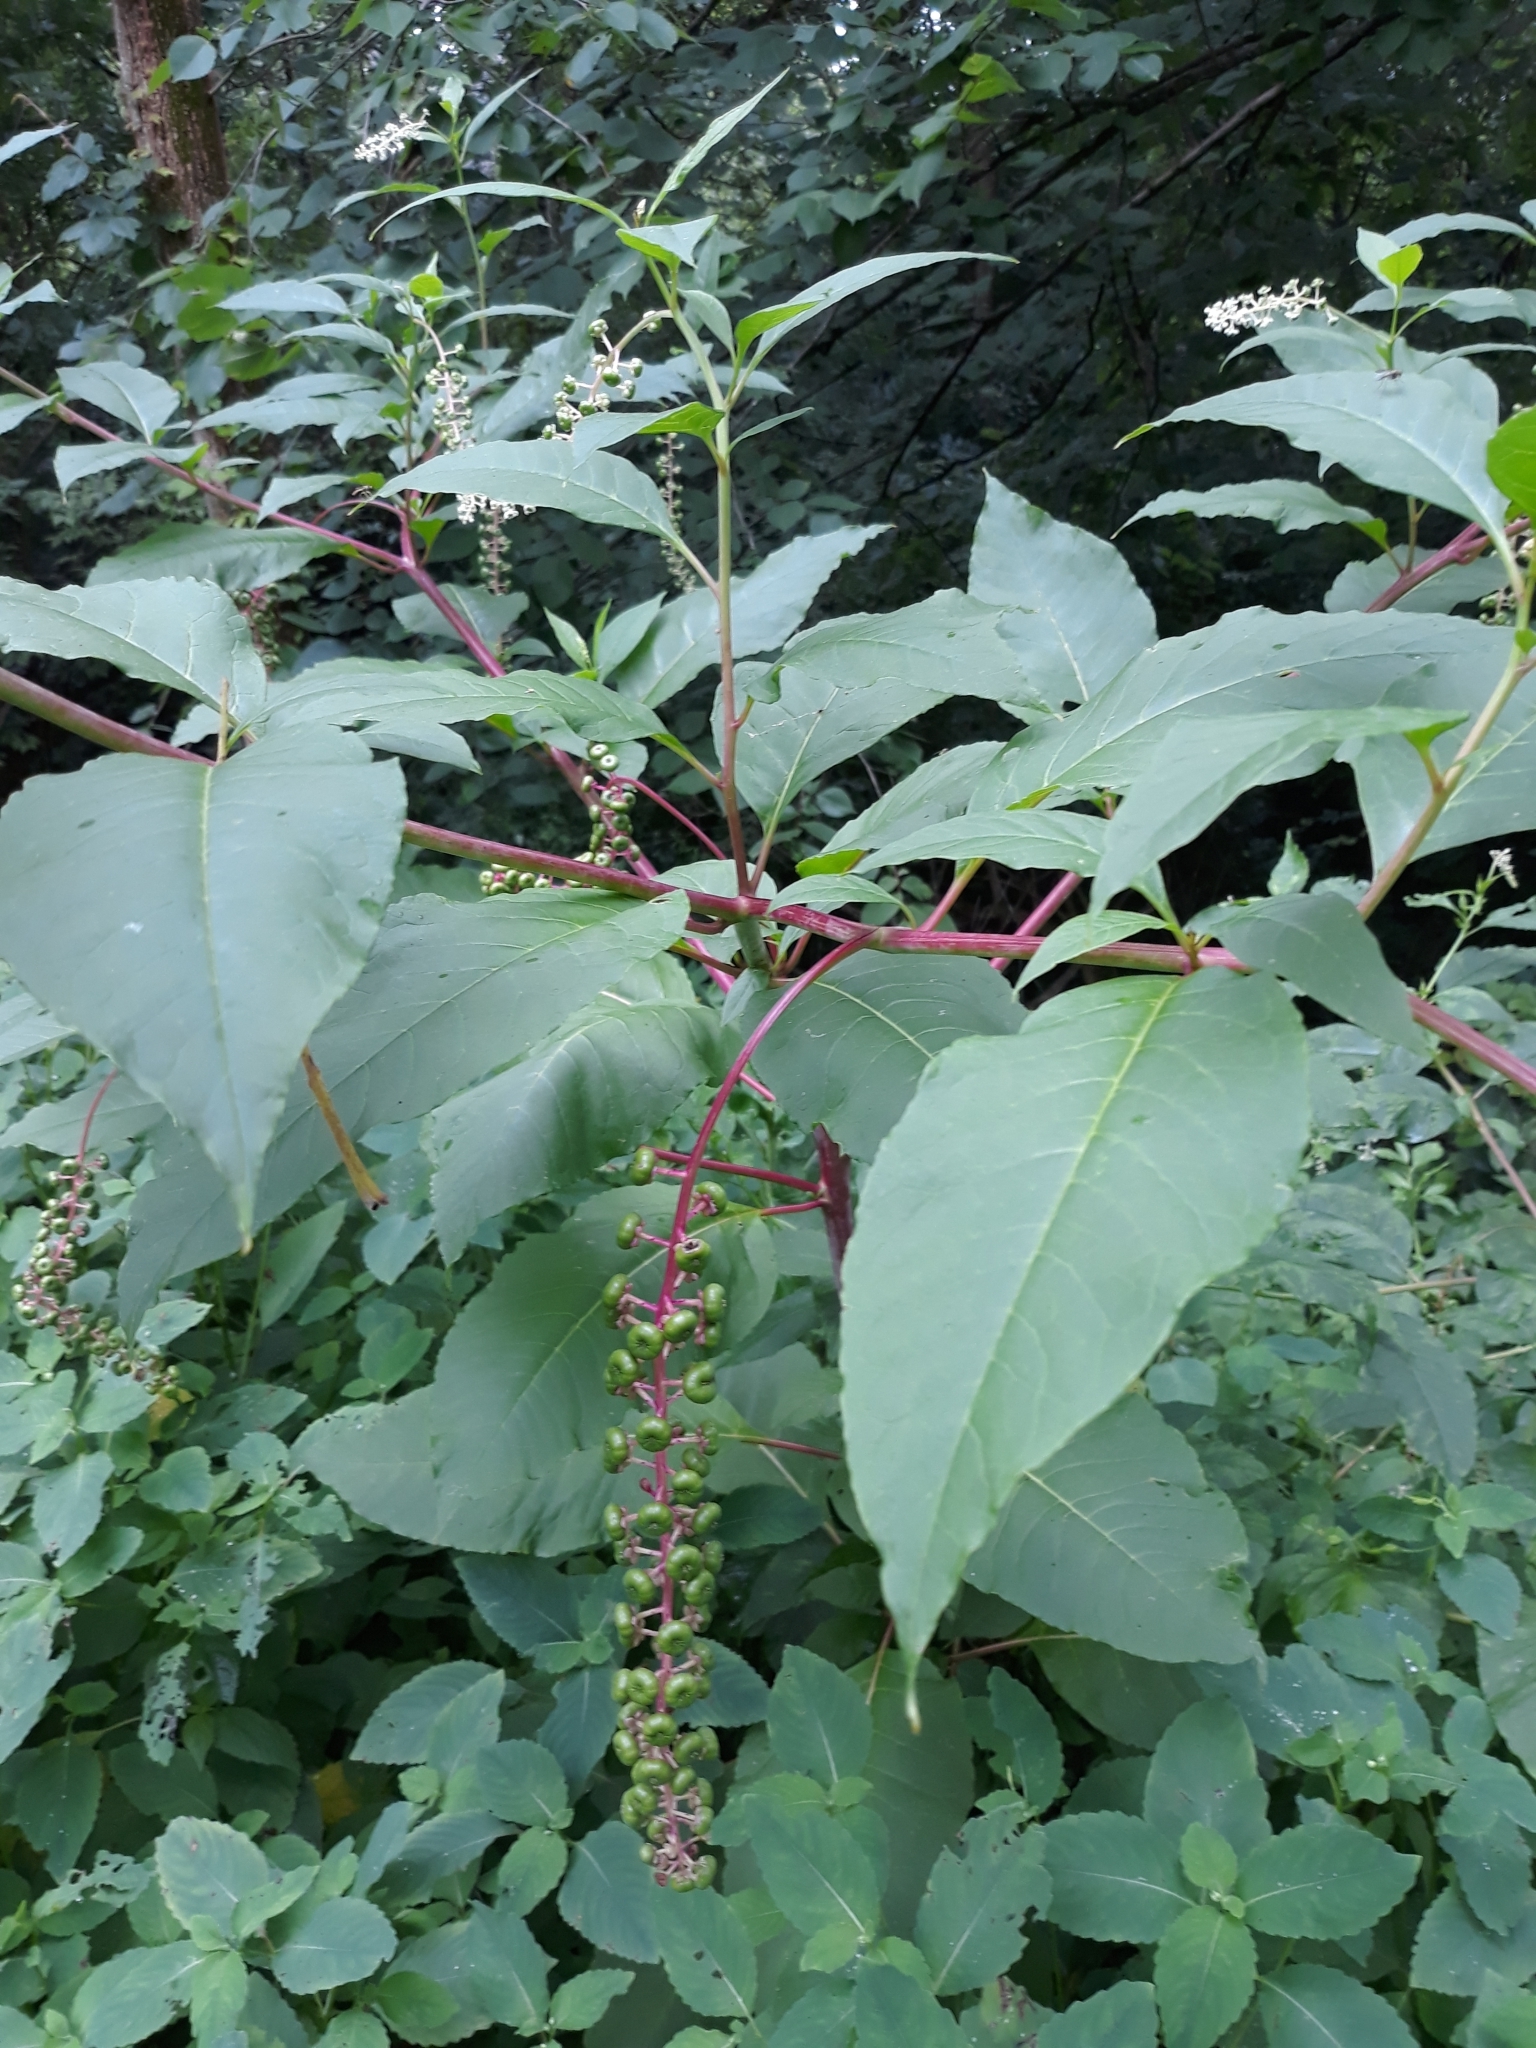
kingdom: Plantae
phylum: Tracheophyta
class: Magnoliopsida
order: Caryophyllales
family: Phytolaccaceae
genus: Phytolacca
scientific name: Phytolacca americana
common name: American pokeweed
